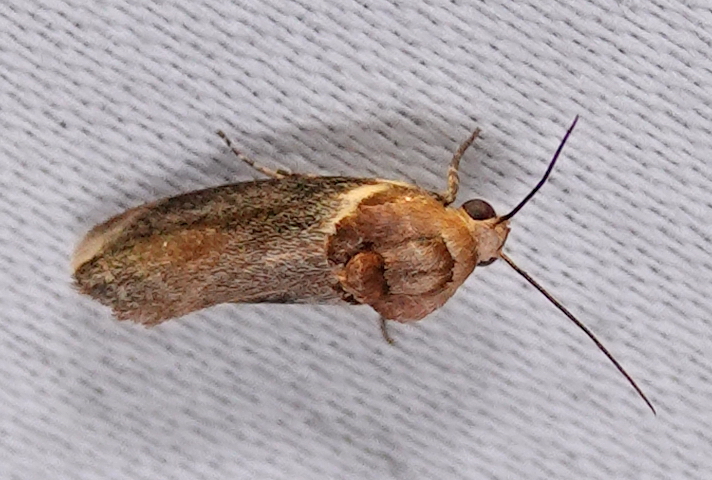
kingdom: Animalia
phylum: Arthropoda
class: Insecta
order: Lepidoptera
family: Noctuidae
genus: Spragueia
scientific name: Spragueia apicalis
